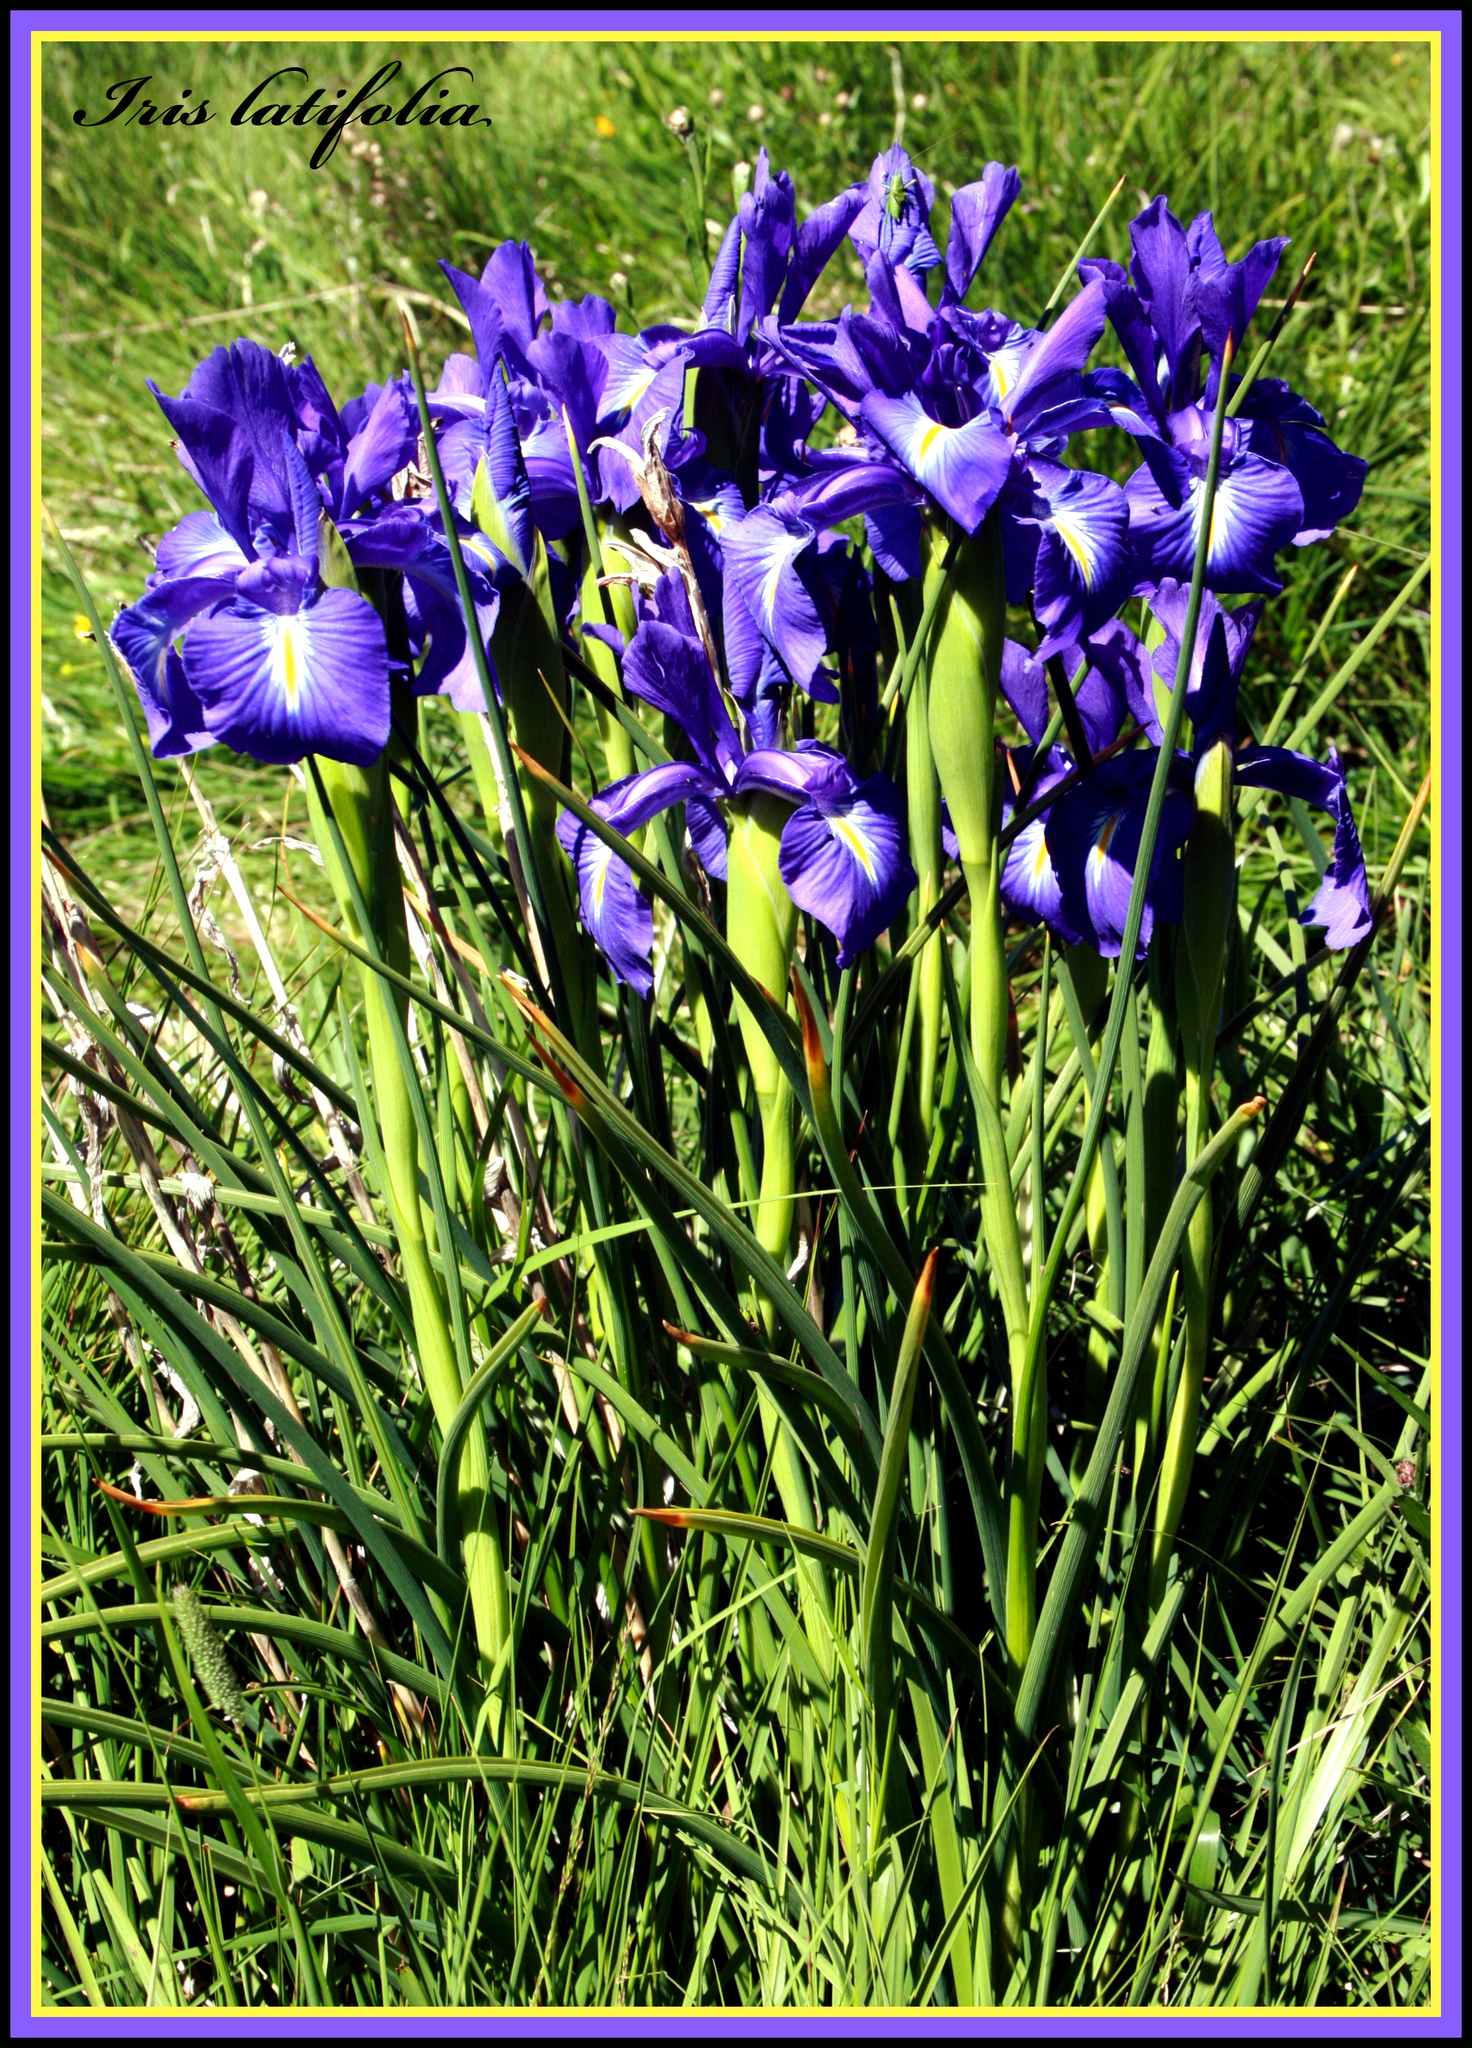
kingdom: Plantae
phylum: Tracheophyta
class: Liliopsida
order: Asparagales
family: Iridaceae
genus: Iris
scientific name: Iris
